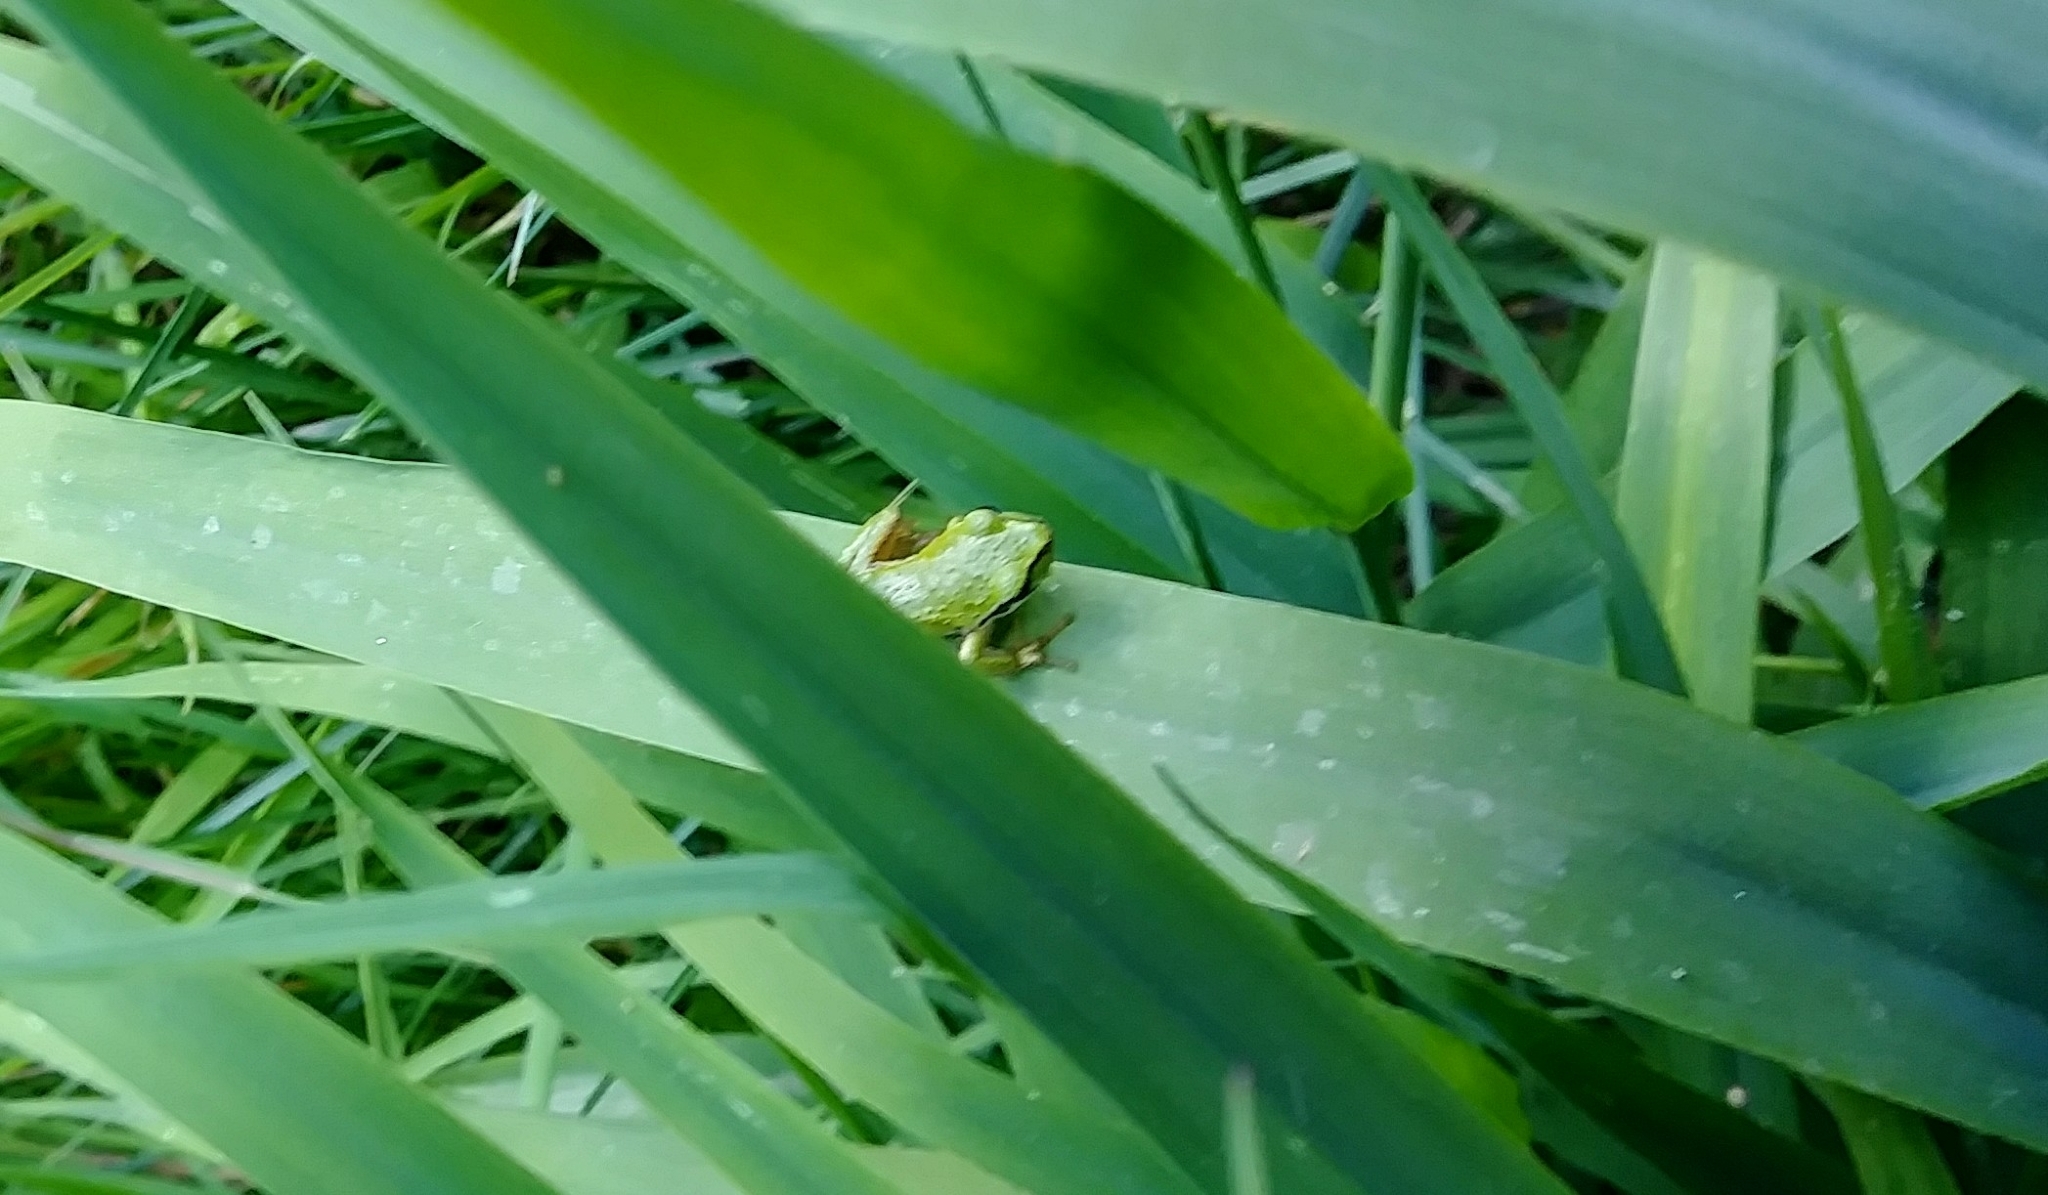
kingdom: Animalia
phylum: Chordata
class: Amphibia
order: Anura
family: Hylidae
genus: Pseudacris
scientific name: Pseudacris regilla
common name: Pacific chorus frog
